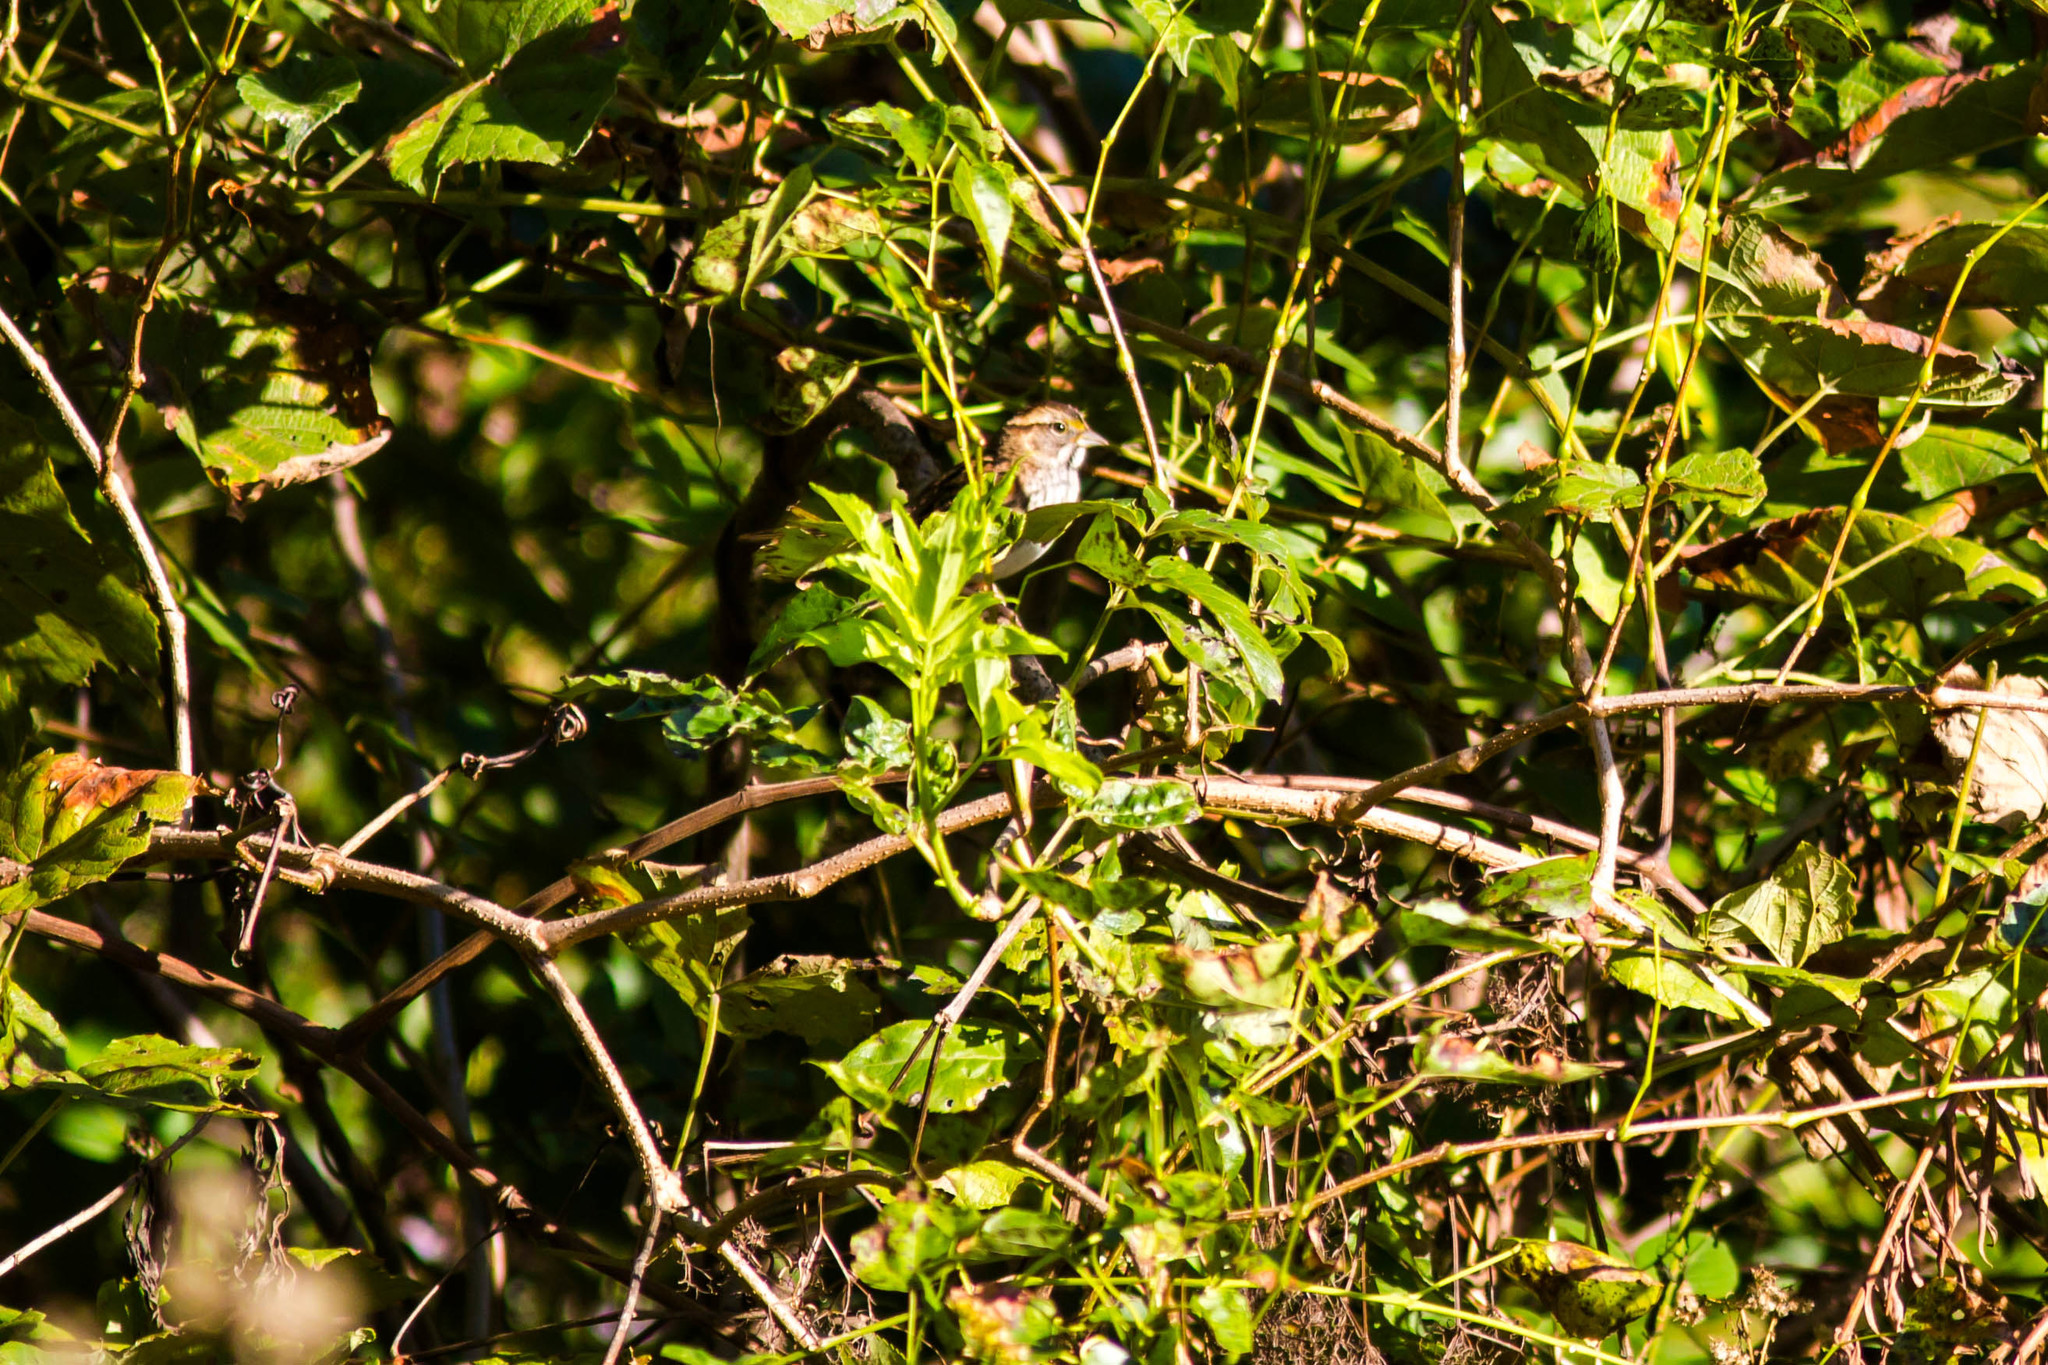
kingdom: Animalia
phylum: Chordata
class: Aves
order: Passeriformes
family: Passerellidae
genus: Zonotrichia
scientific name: Zonotrichia albicollis
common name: White-throated sparrow
